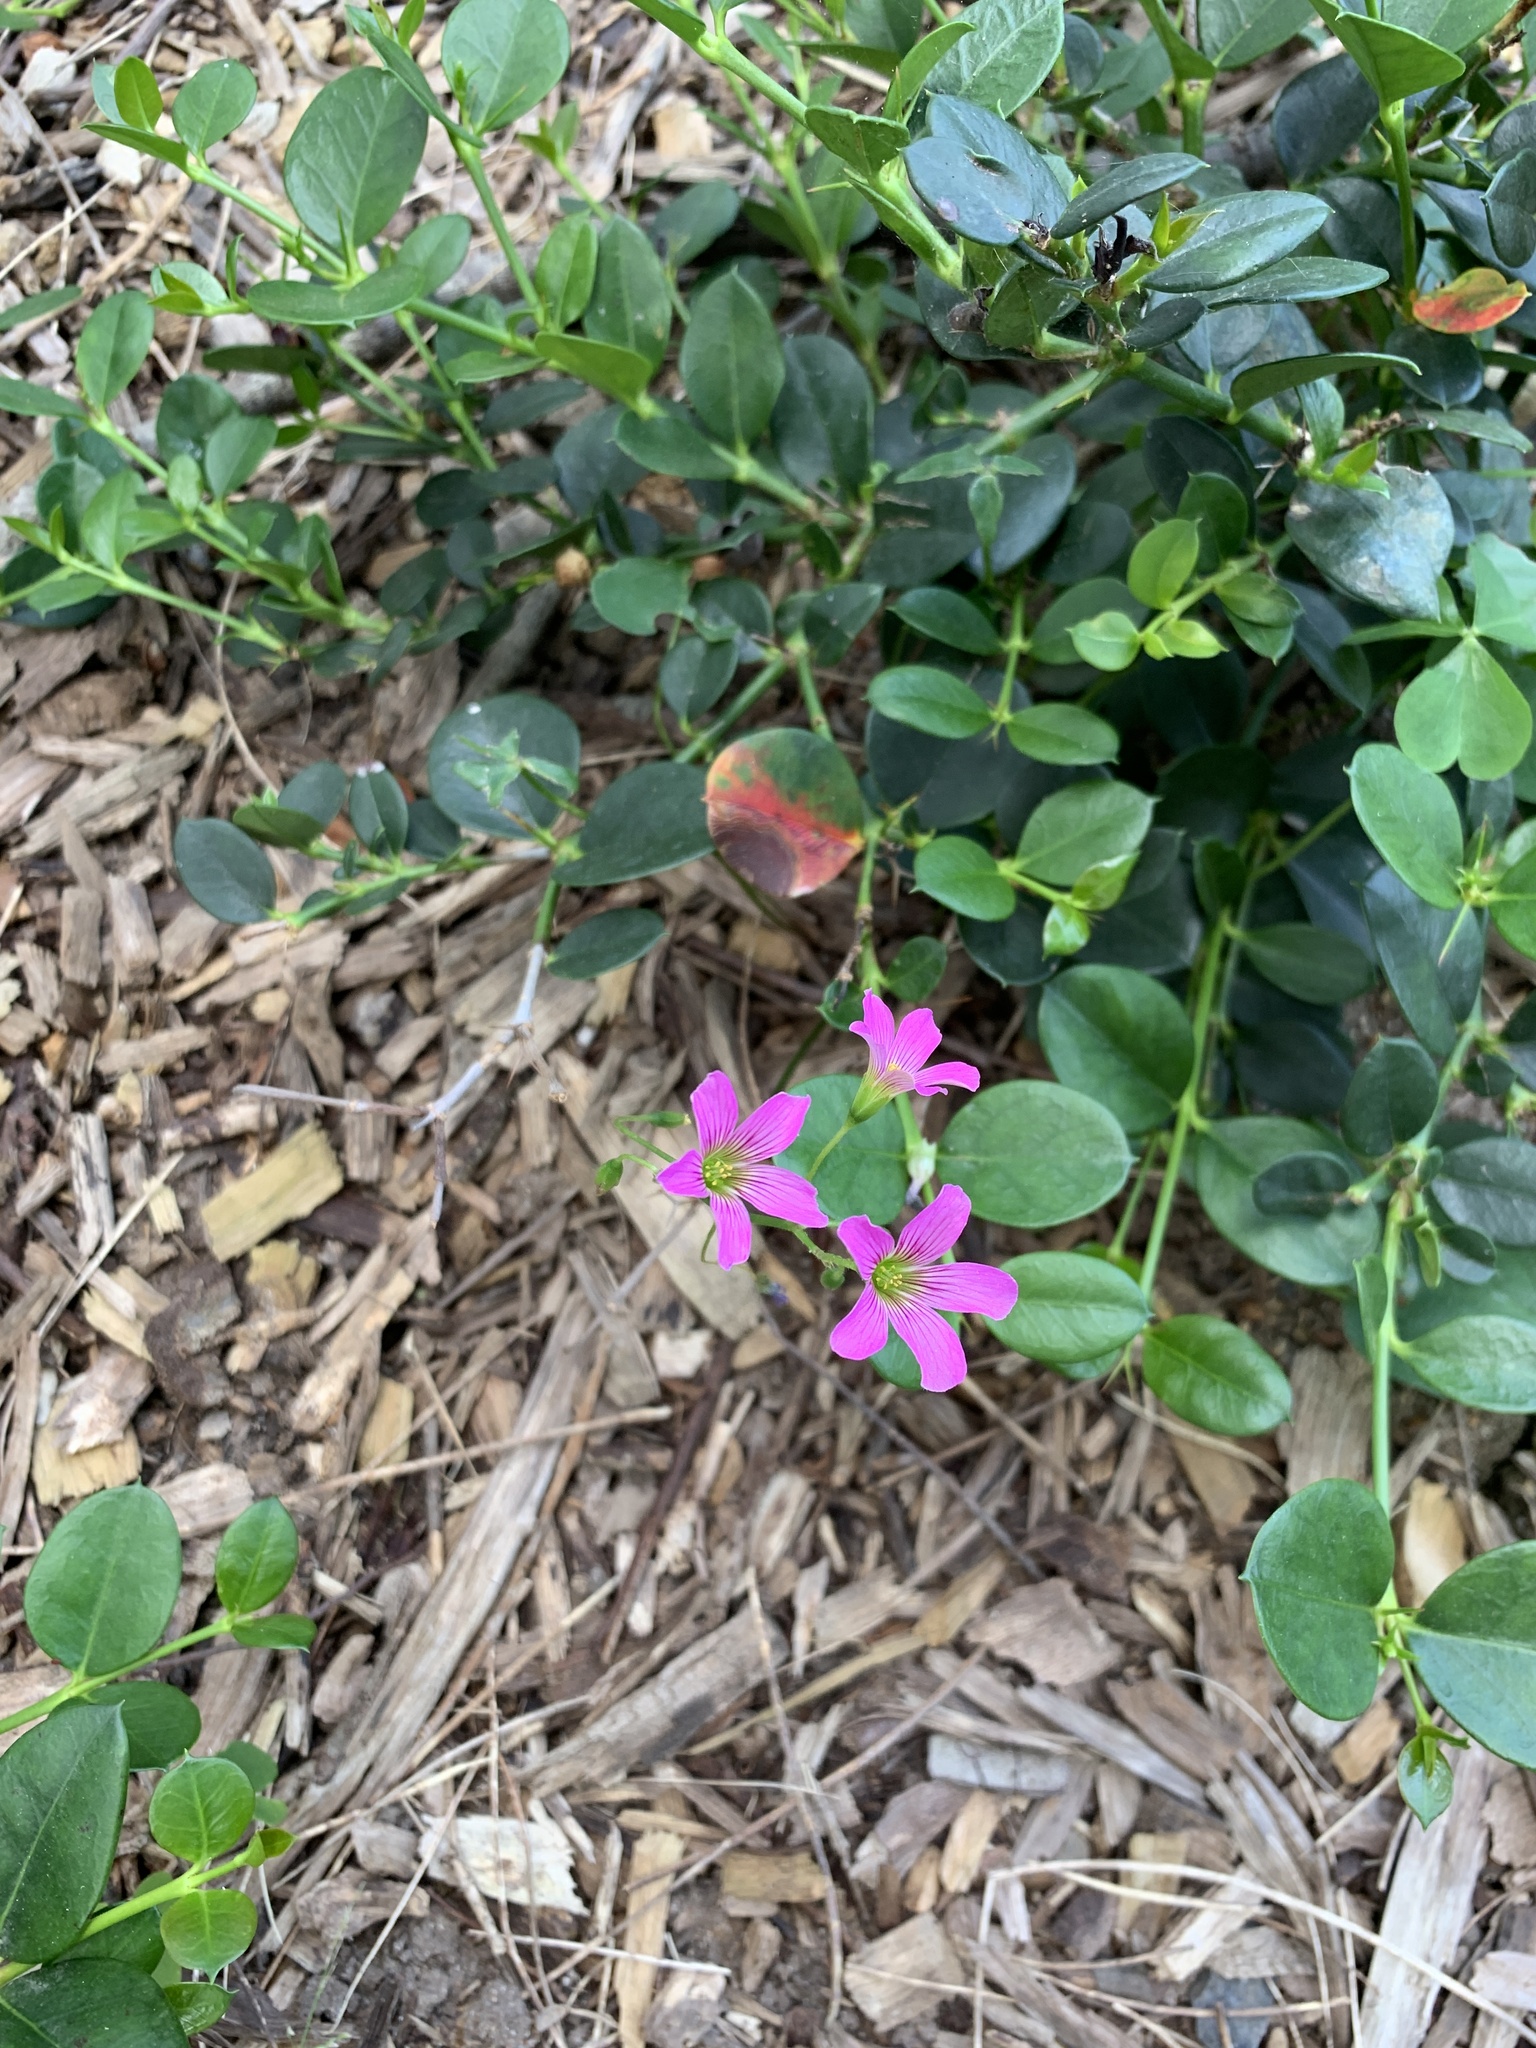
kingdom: Plantae
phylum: Tracheophyta
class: Magnoliopsida
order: Oxalidales
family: Oxalidaceae
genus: Oxalis
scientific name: Oxalis debilis
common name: Large-flowered pink-sorrel
